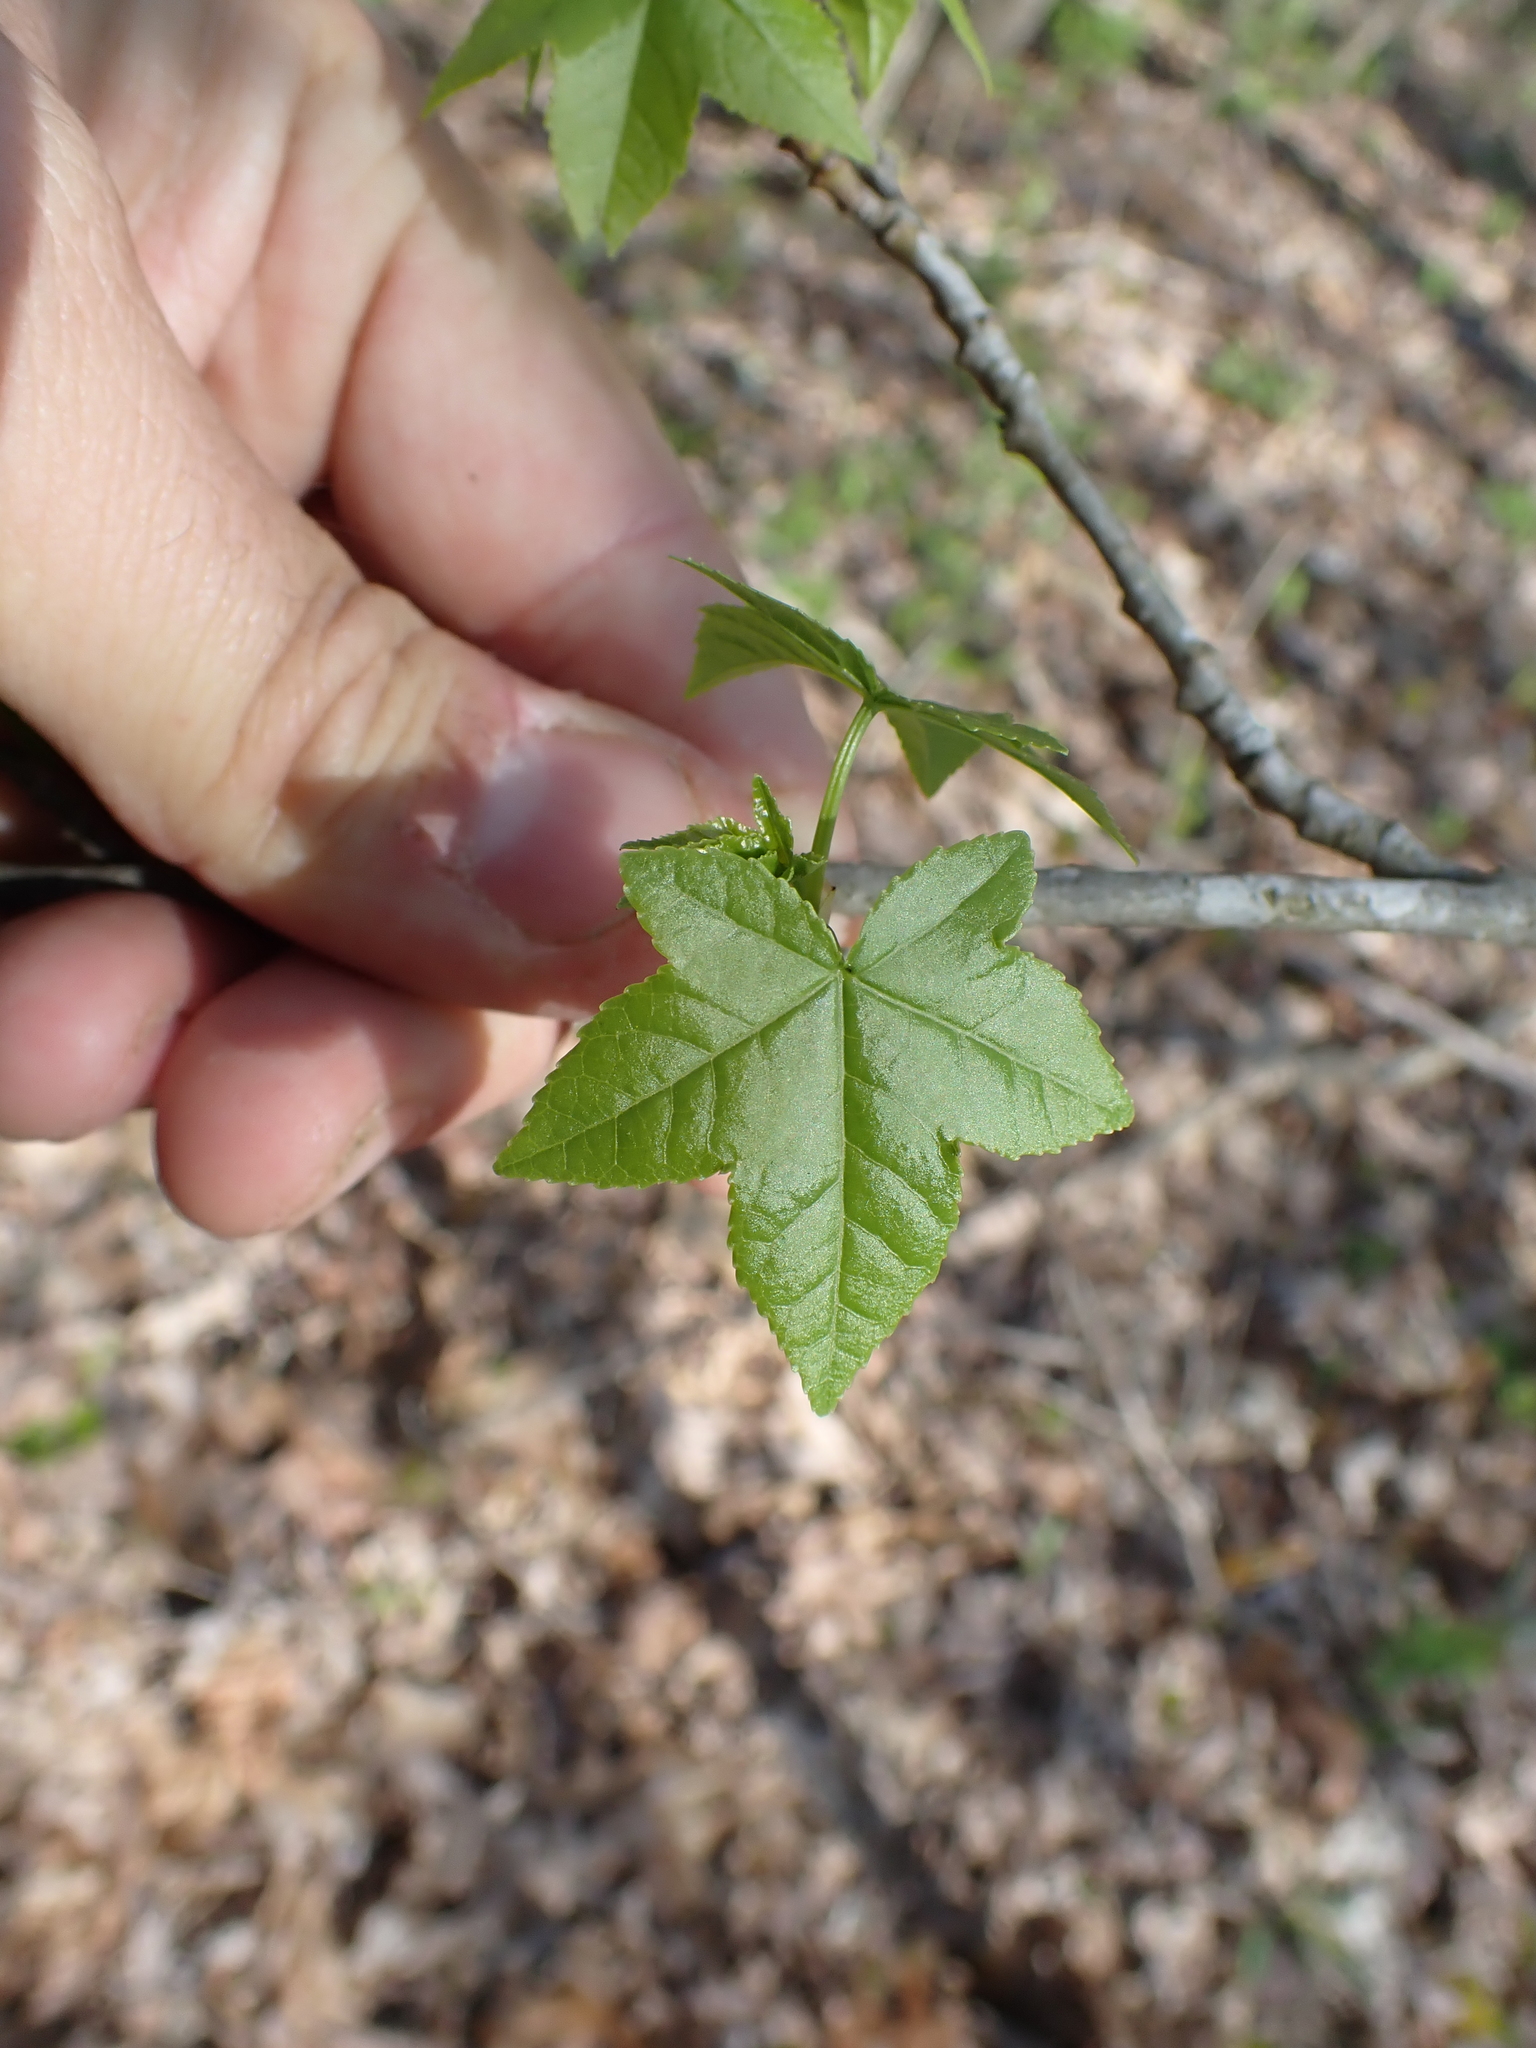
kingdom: Plantae
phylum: Tracheophyta
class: Magnoliopsida
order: Saxifragales
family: Altingiaceae
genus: Liquidambar
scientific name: Liquidambar styraciflua
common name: Sweet gum
